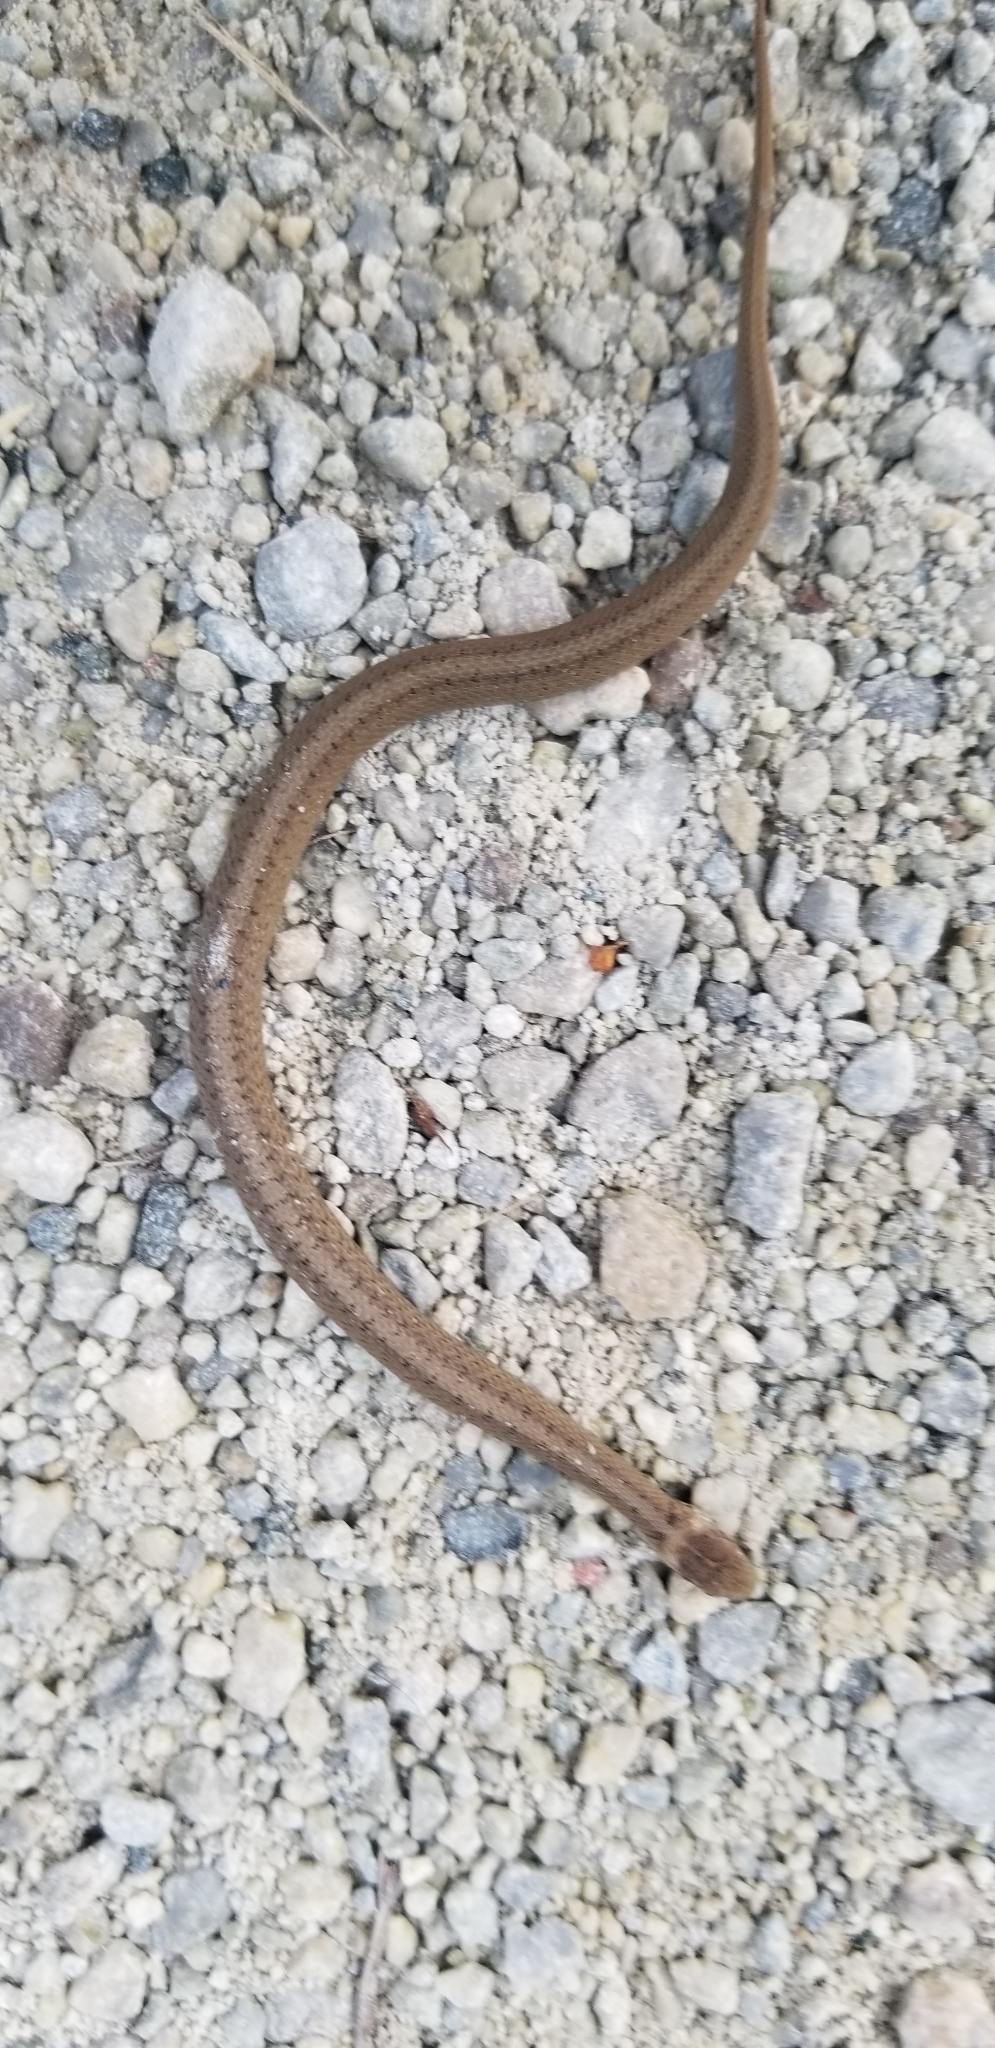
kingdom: Animalia
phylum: Chordata
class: Squamata
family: Colubridae
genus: Storeria
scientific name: Storeria dekayi
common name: (dekay’s) brown snake
